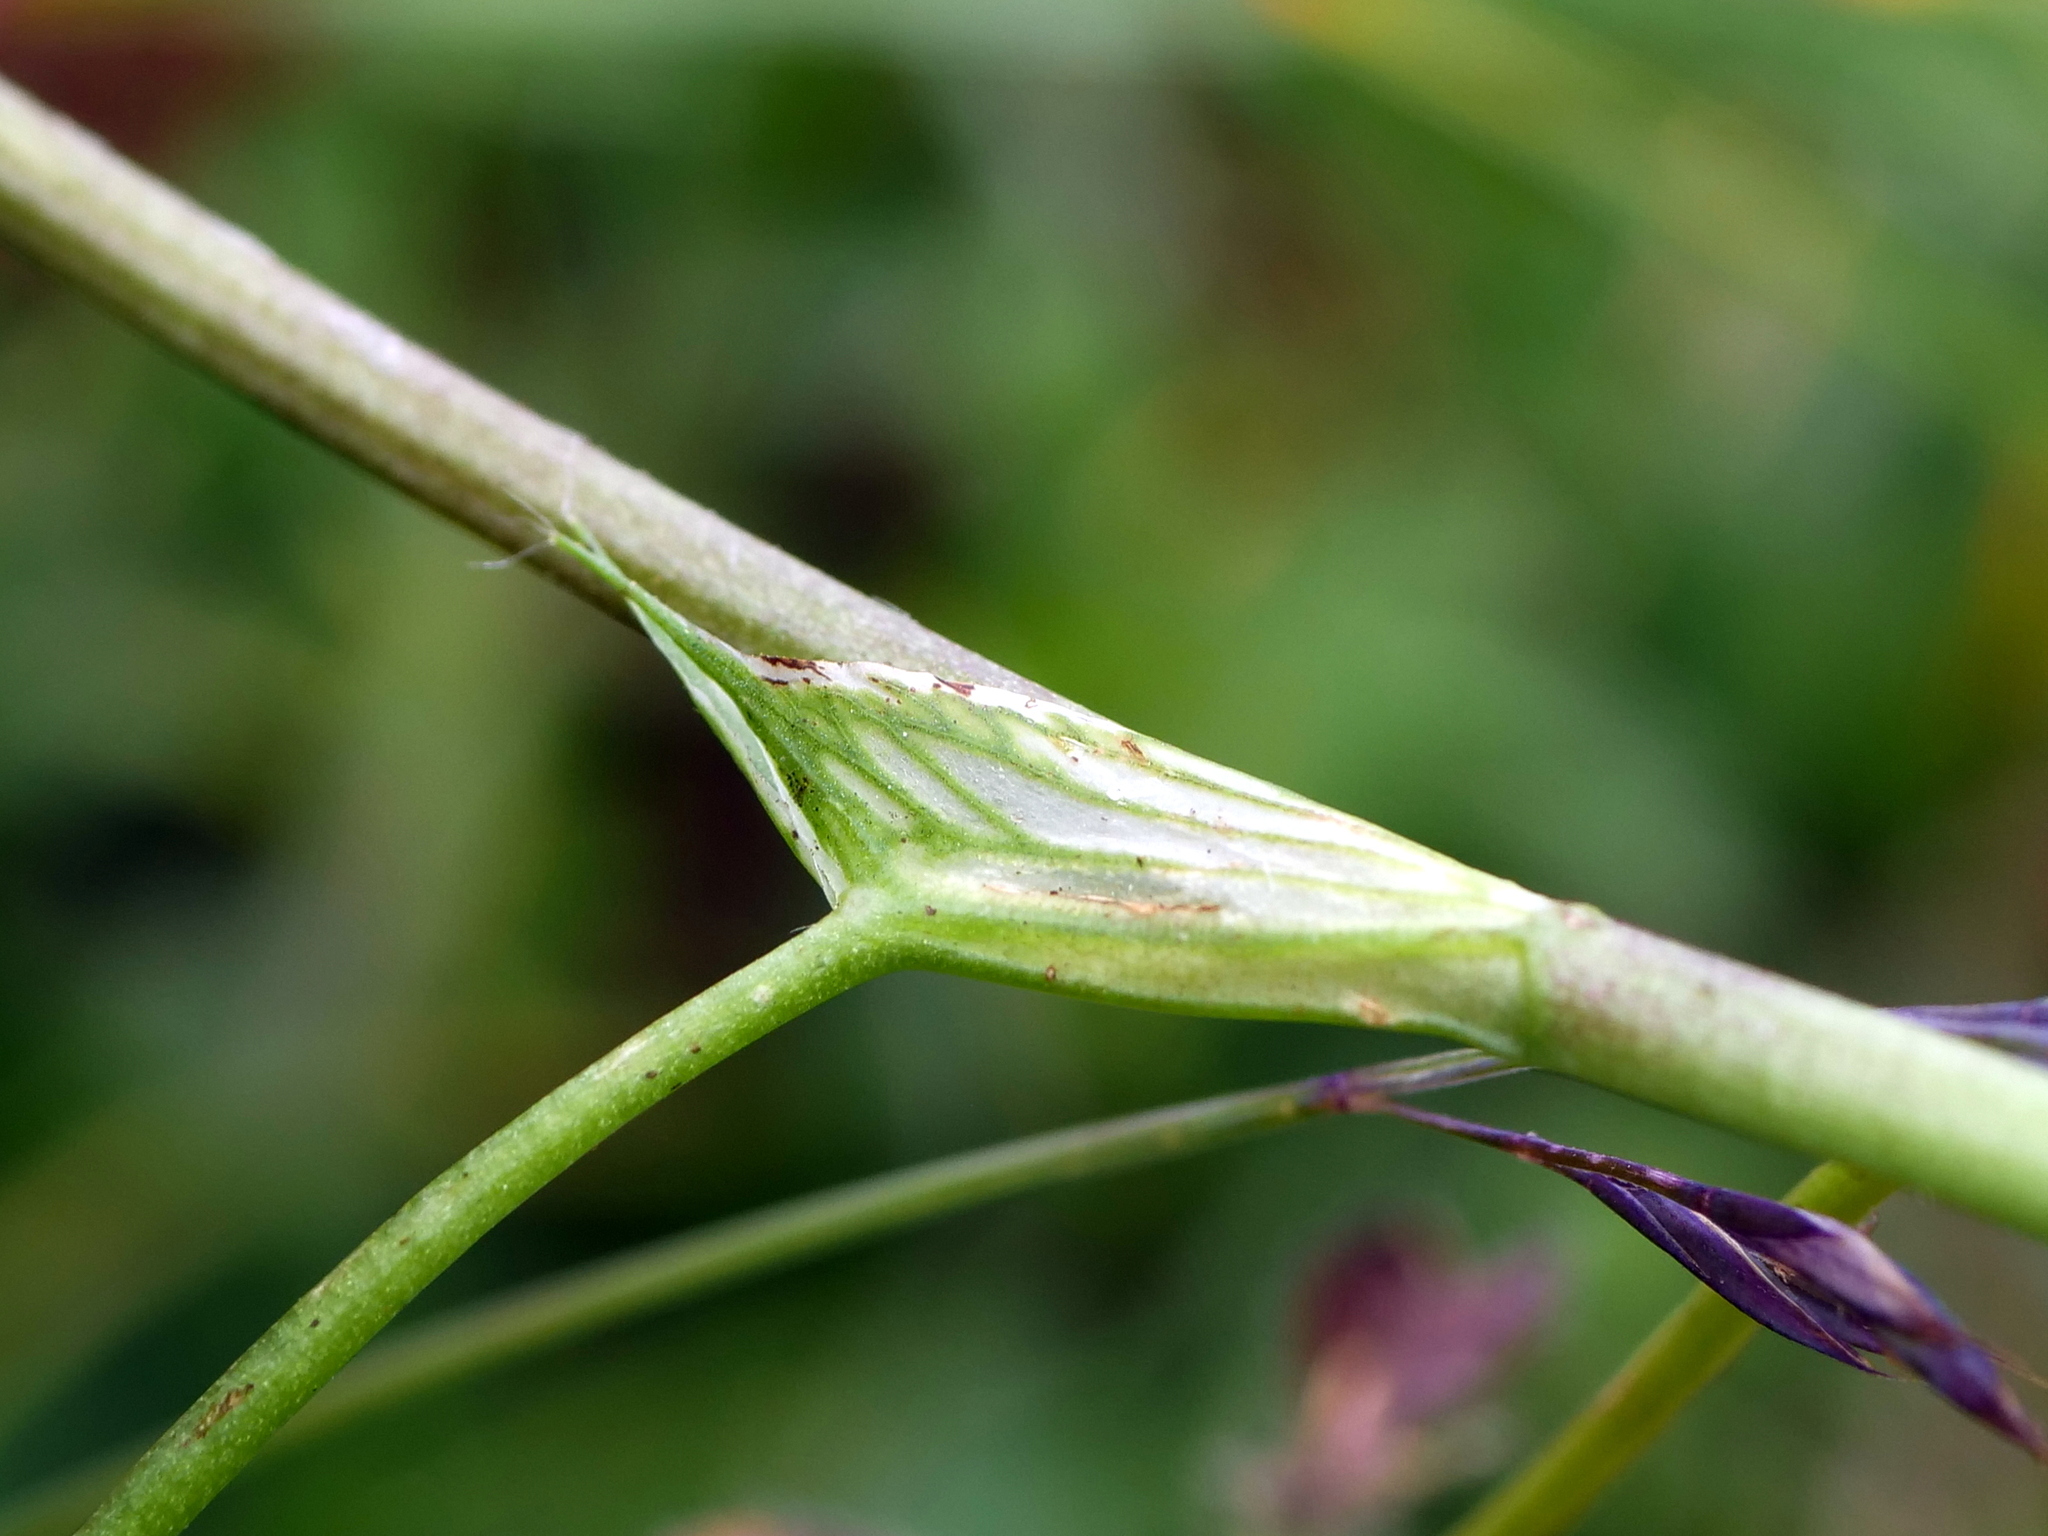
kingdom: Plantae
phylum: Tracheophyta
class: Magnoliopsida
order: Fabales
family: Fabaceae
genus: Trifolium
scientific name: Trifolium pratense
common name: Red clover
